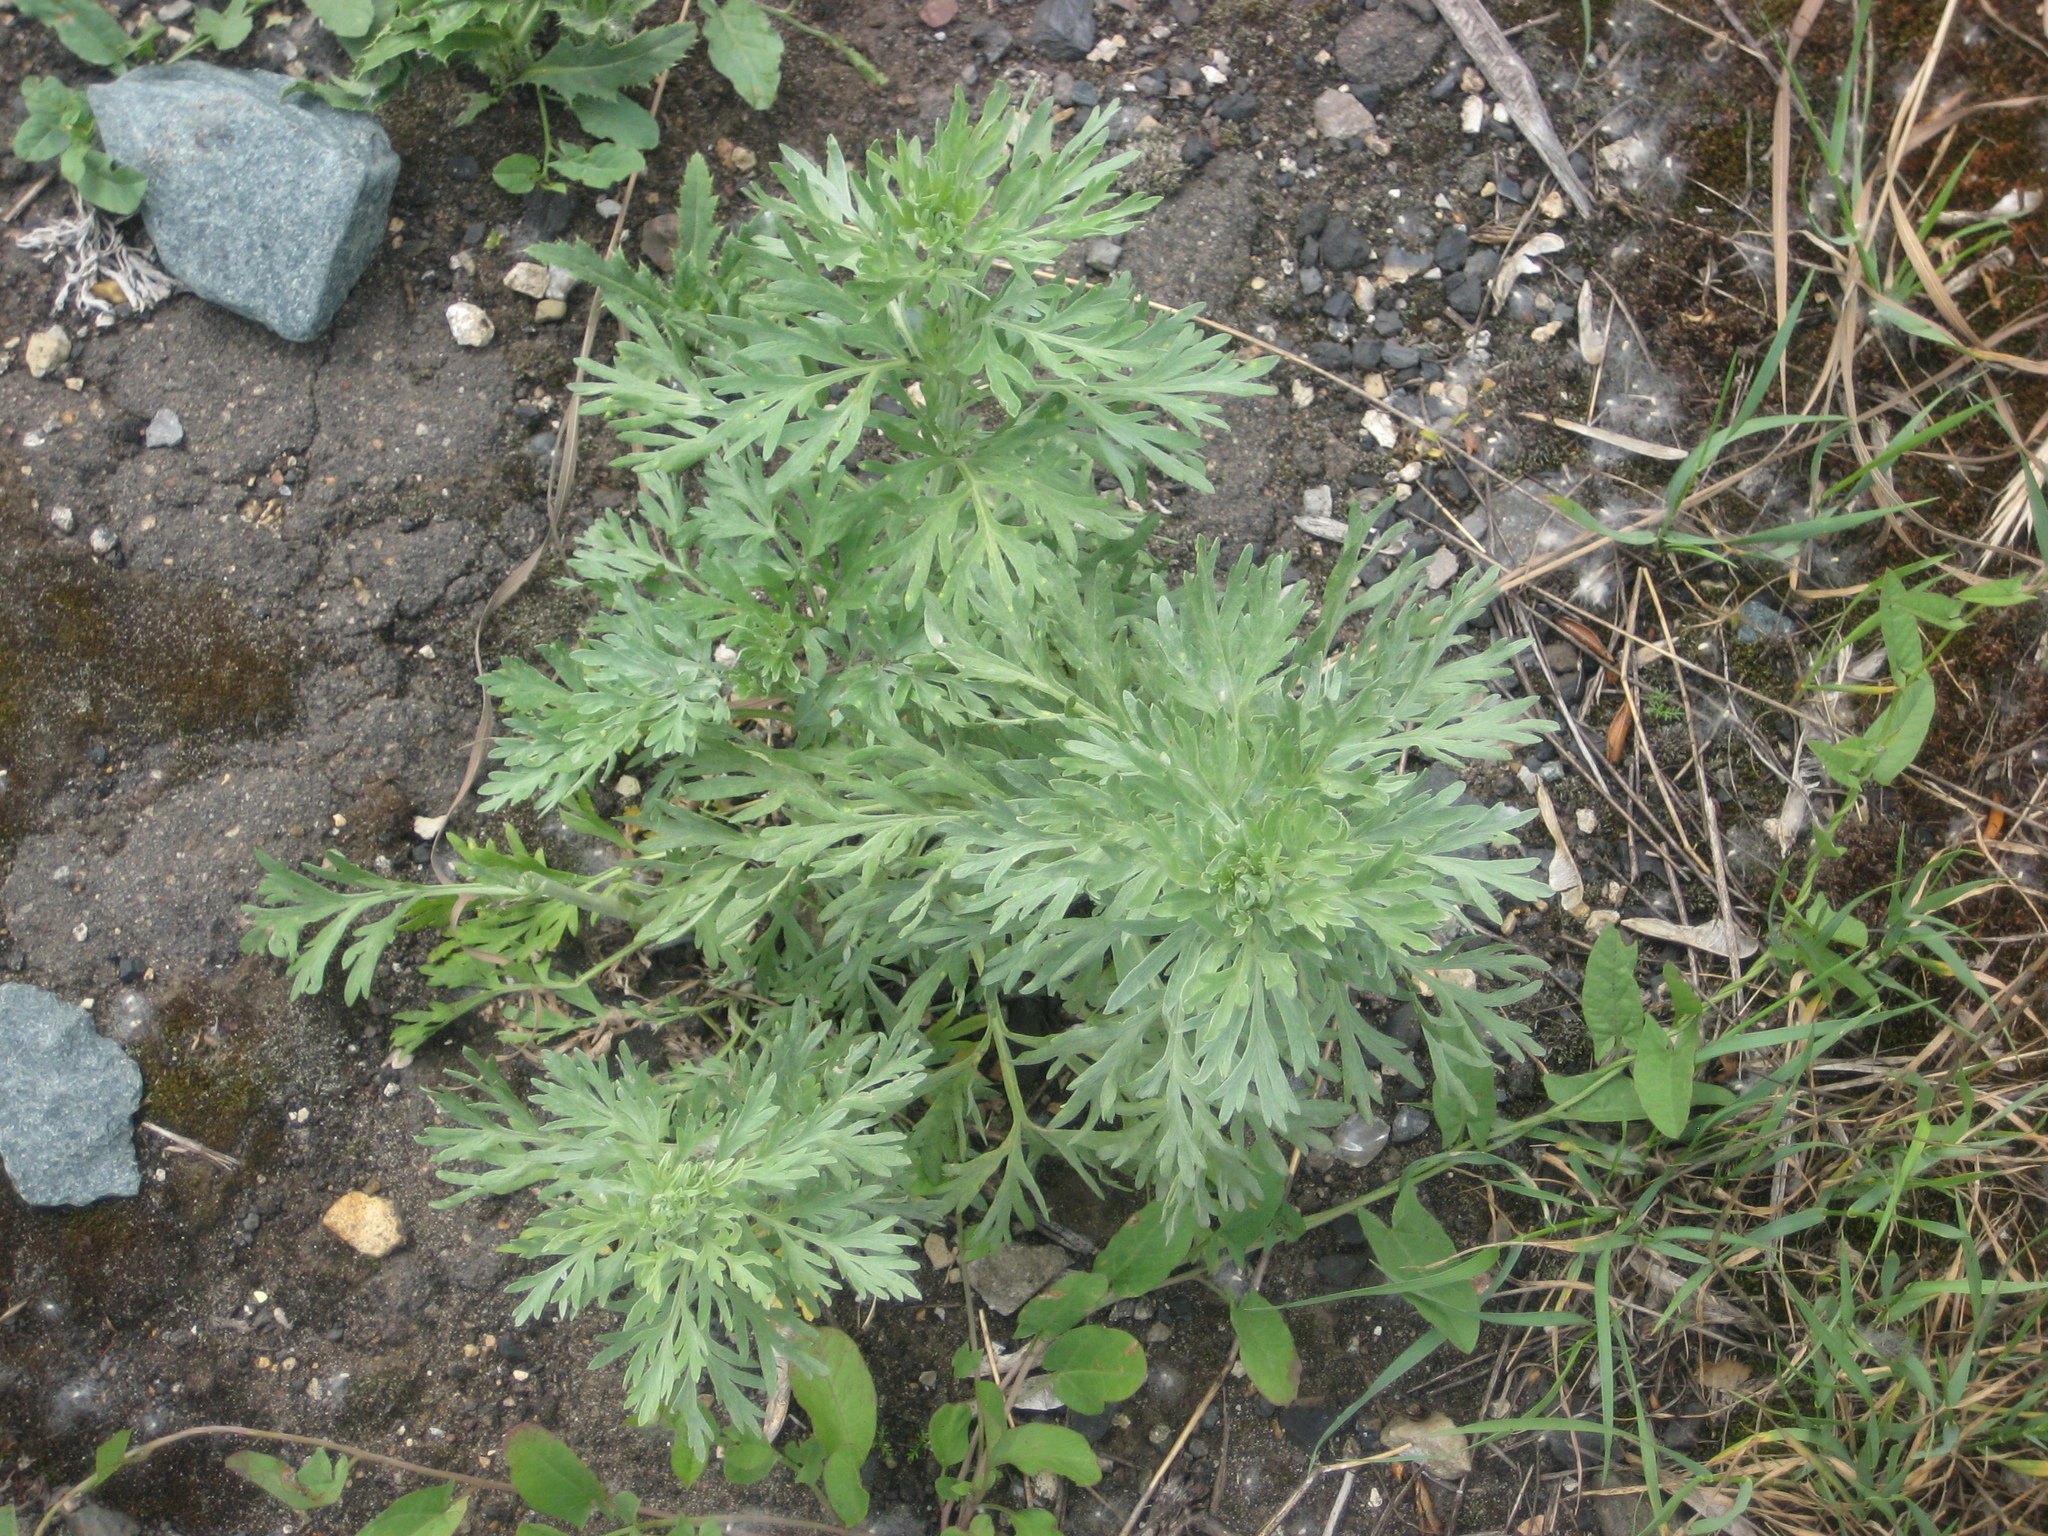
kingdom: Plantae
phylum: Tracheophyta
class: Magnoliopsida
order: Asterales
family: Asteraceae
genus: Artemisia
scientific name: Artemisia absinthium
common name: Wormwood
